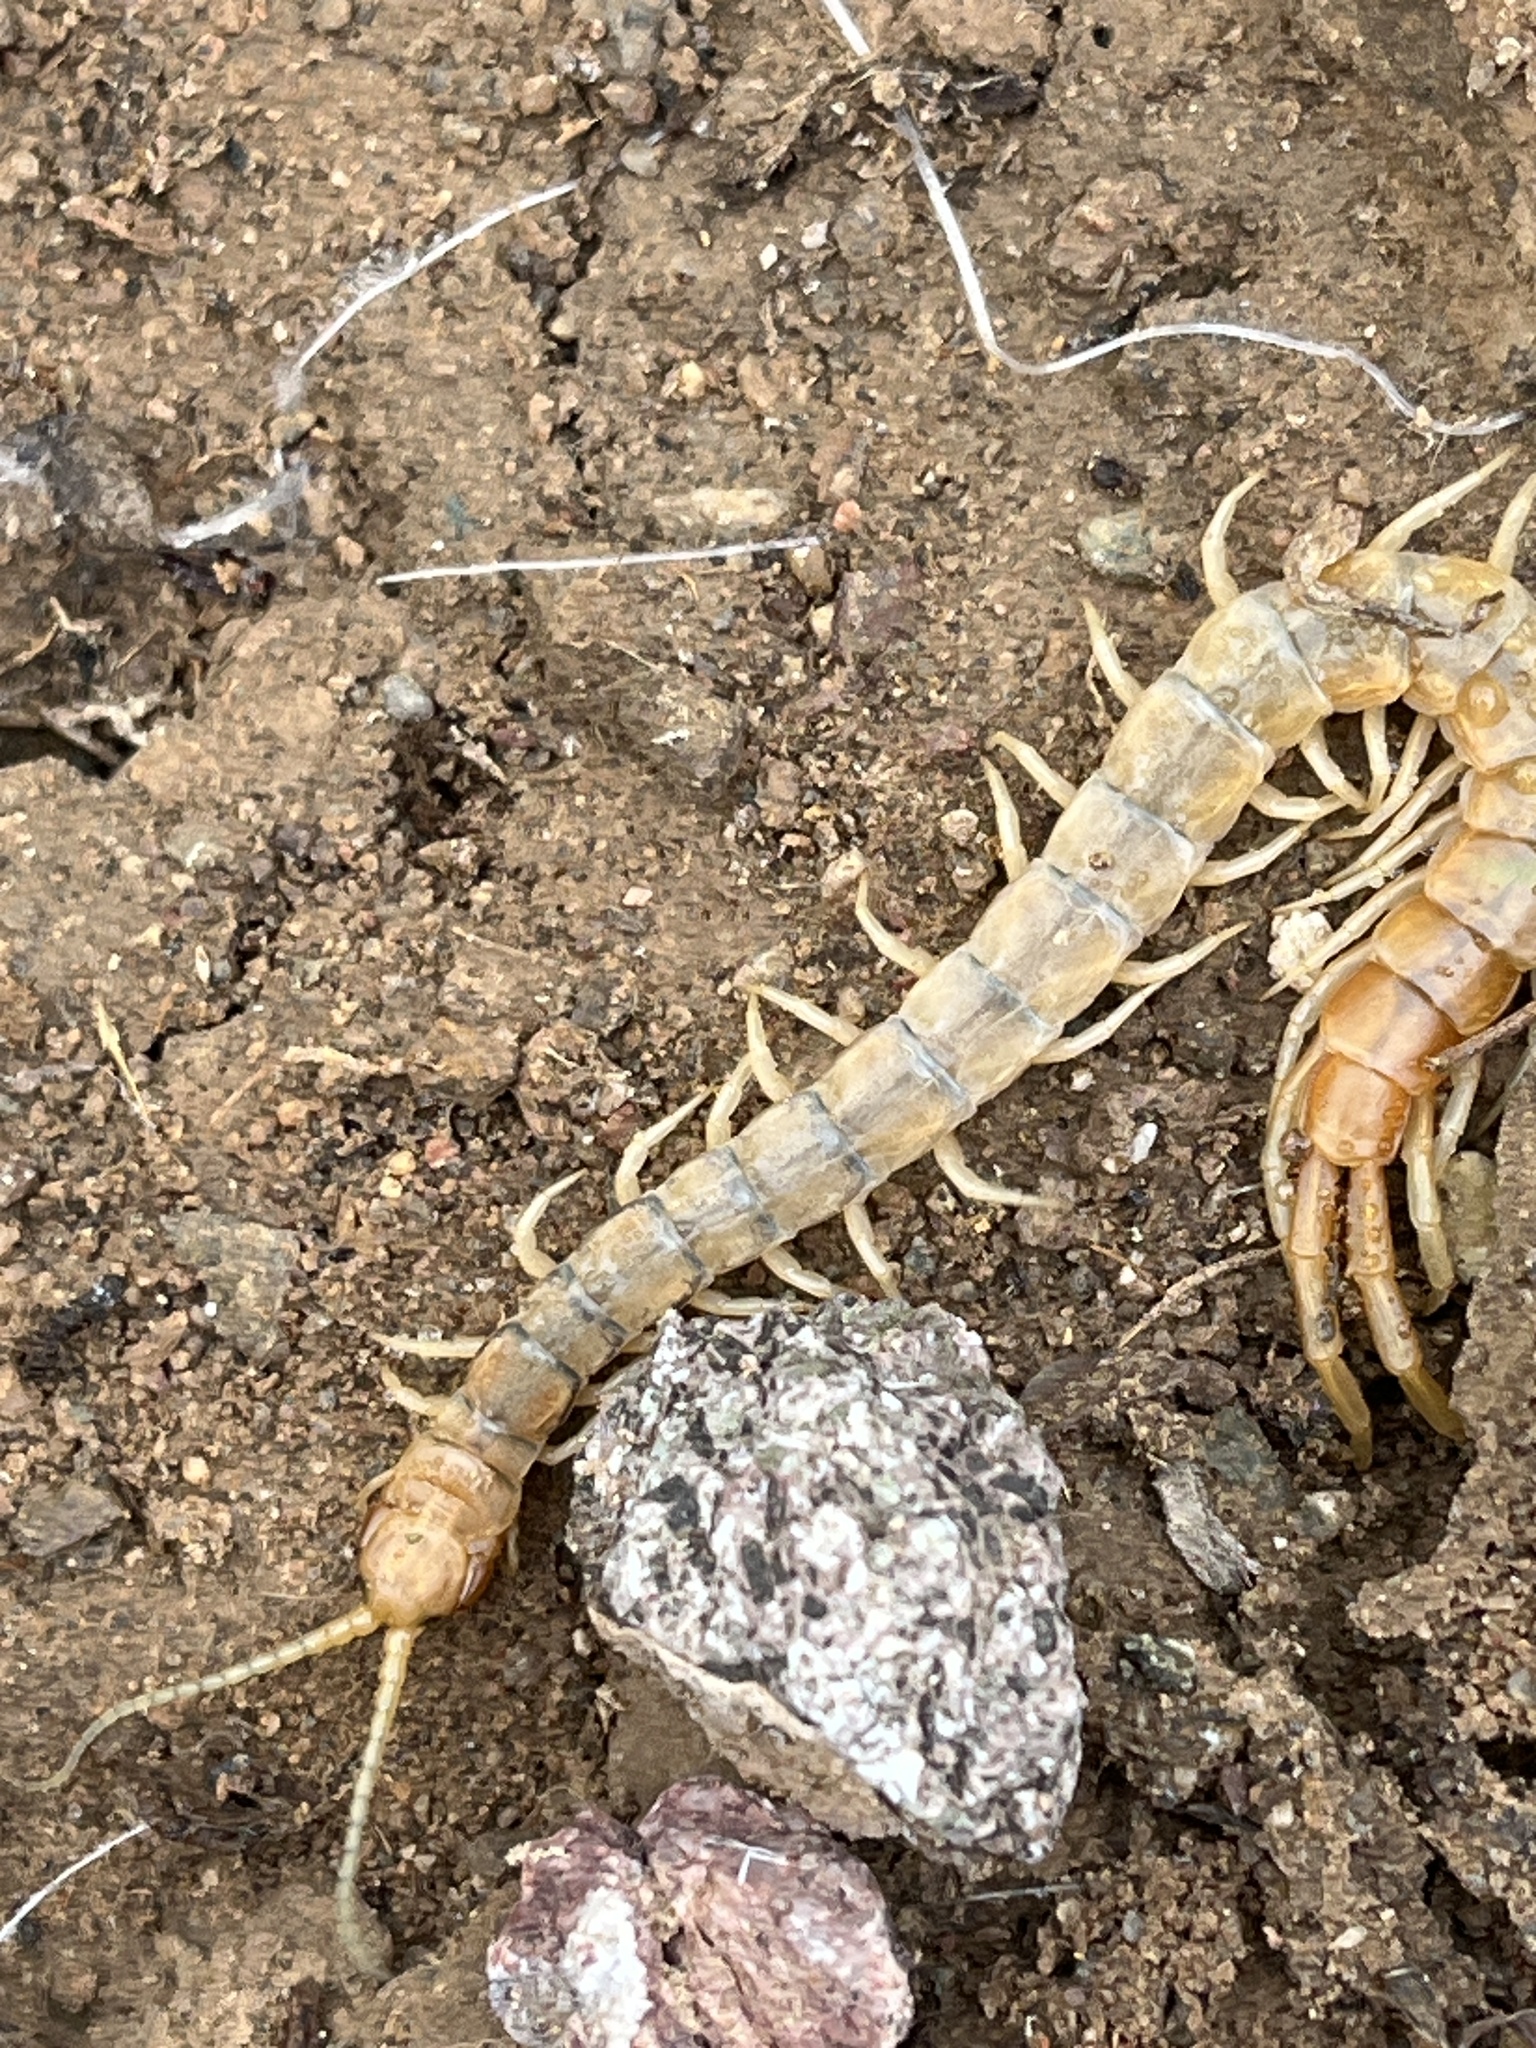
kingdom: Animalia
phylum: Arthropoda
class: Chilopoda
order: Scolopendromorpha
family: Scolopendridae
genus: Scolopendra
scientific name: Scolopendra polymorpha
